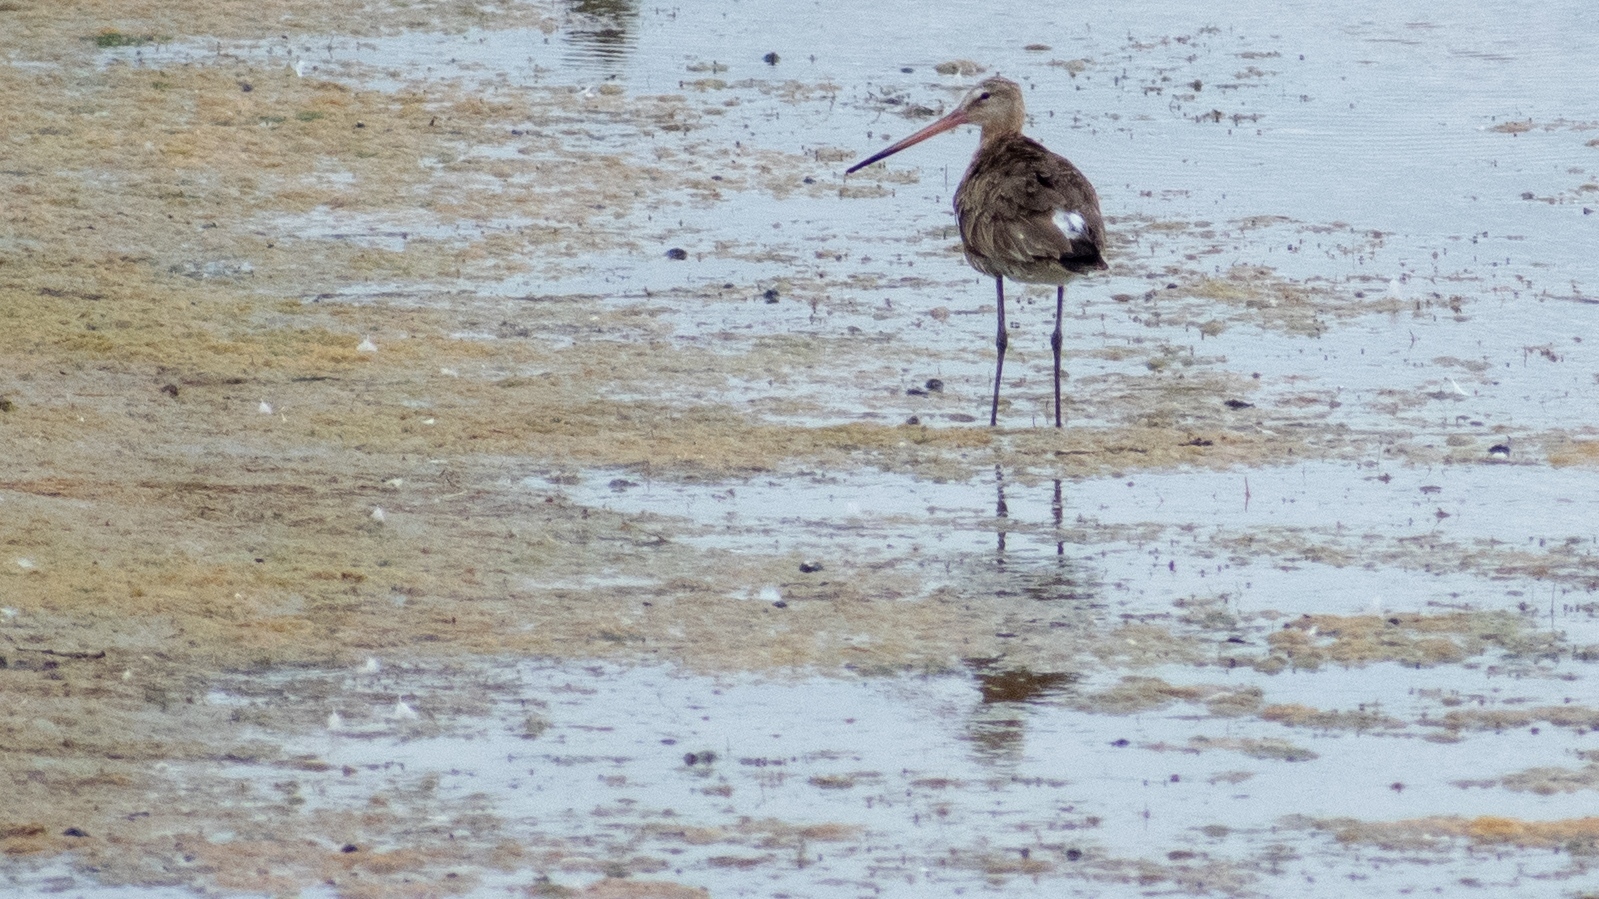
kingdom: Animalia
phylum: Chordata
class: Aves
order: Charadriiformes
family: Scolopacidae
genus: Limosa
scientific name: Limosa limosa
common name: Black-tailed godwit
